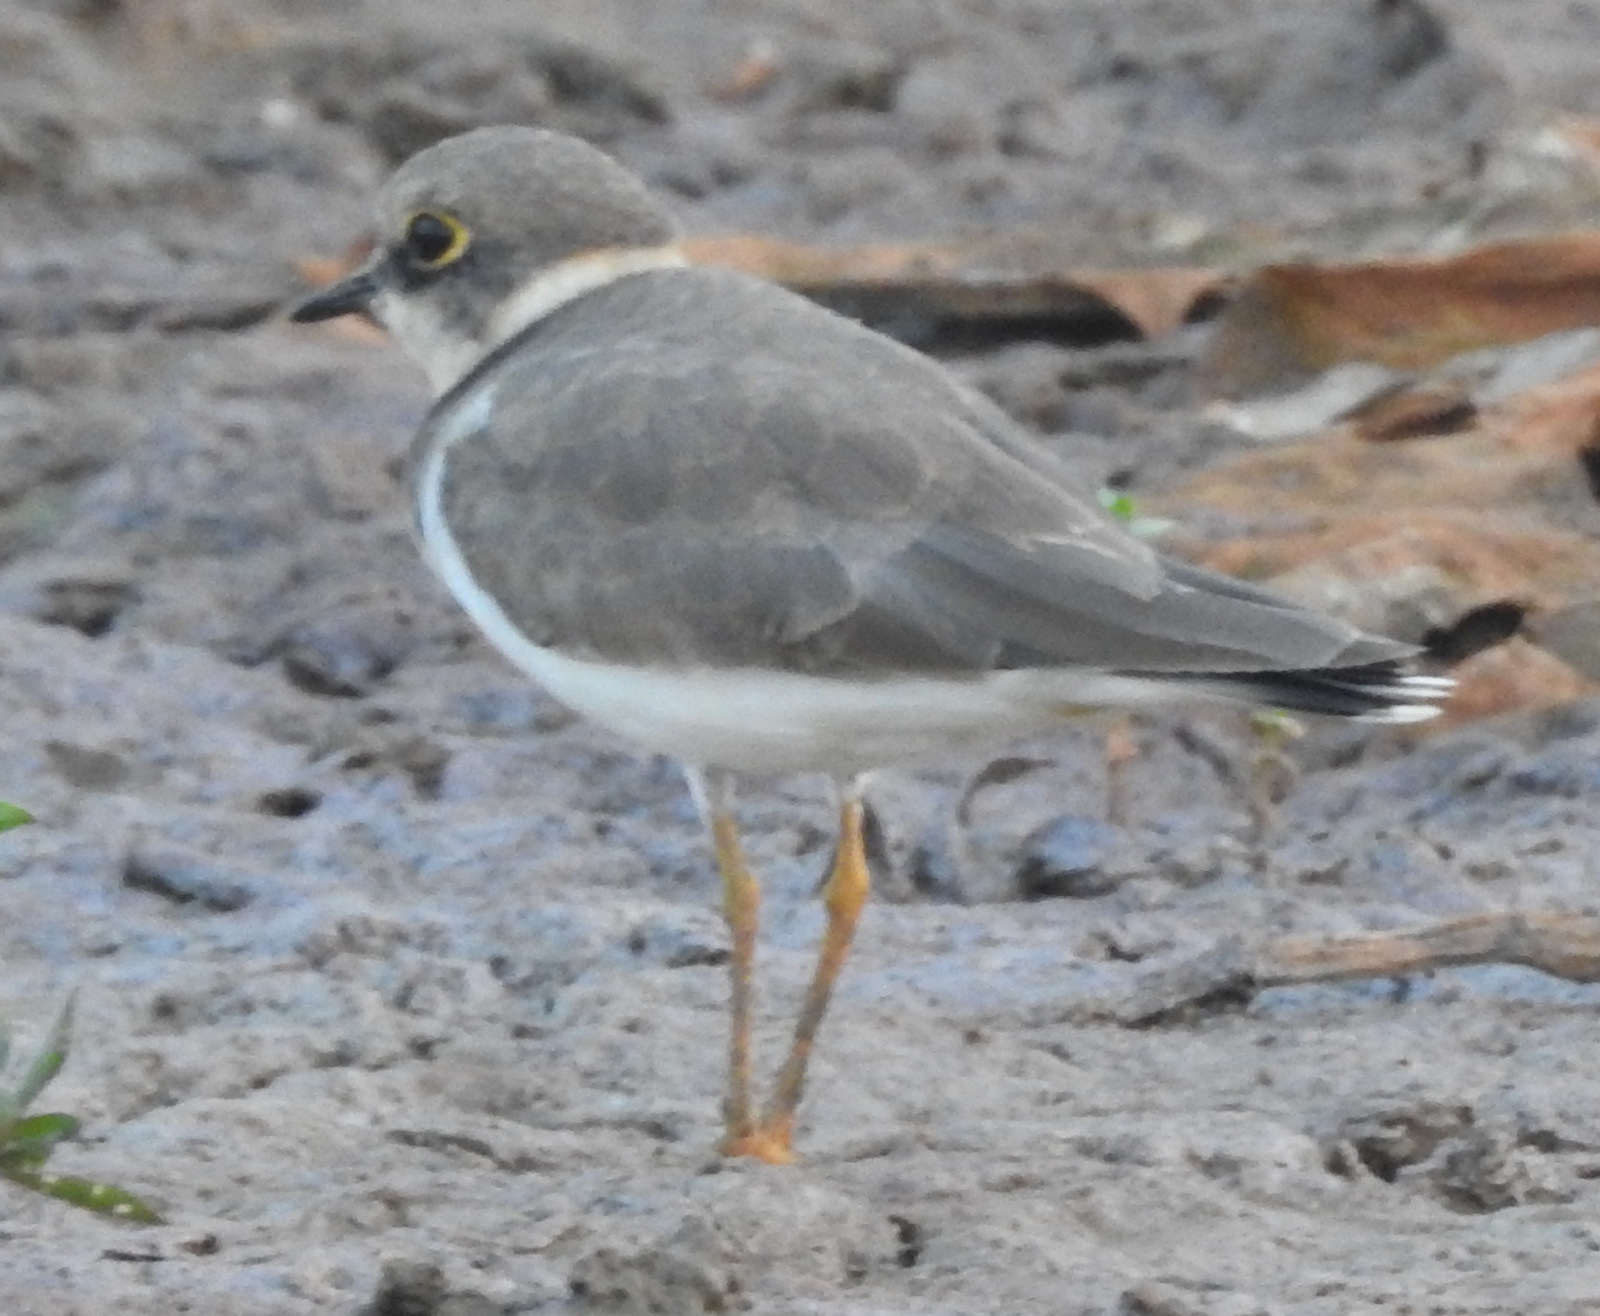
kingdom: Animalia
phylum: Chordata
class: Aves
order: Charadriiformes
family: Charadriidae
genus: Charadrius
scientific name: Charadrius dubius
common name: Little ringed plover
